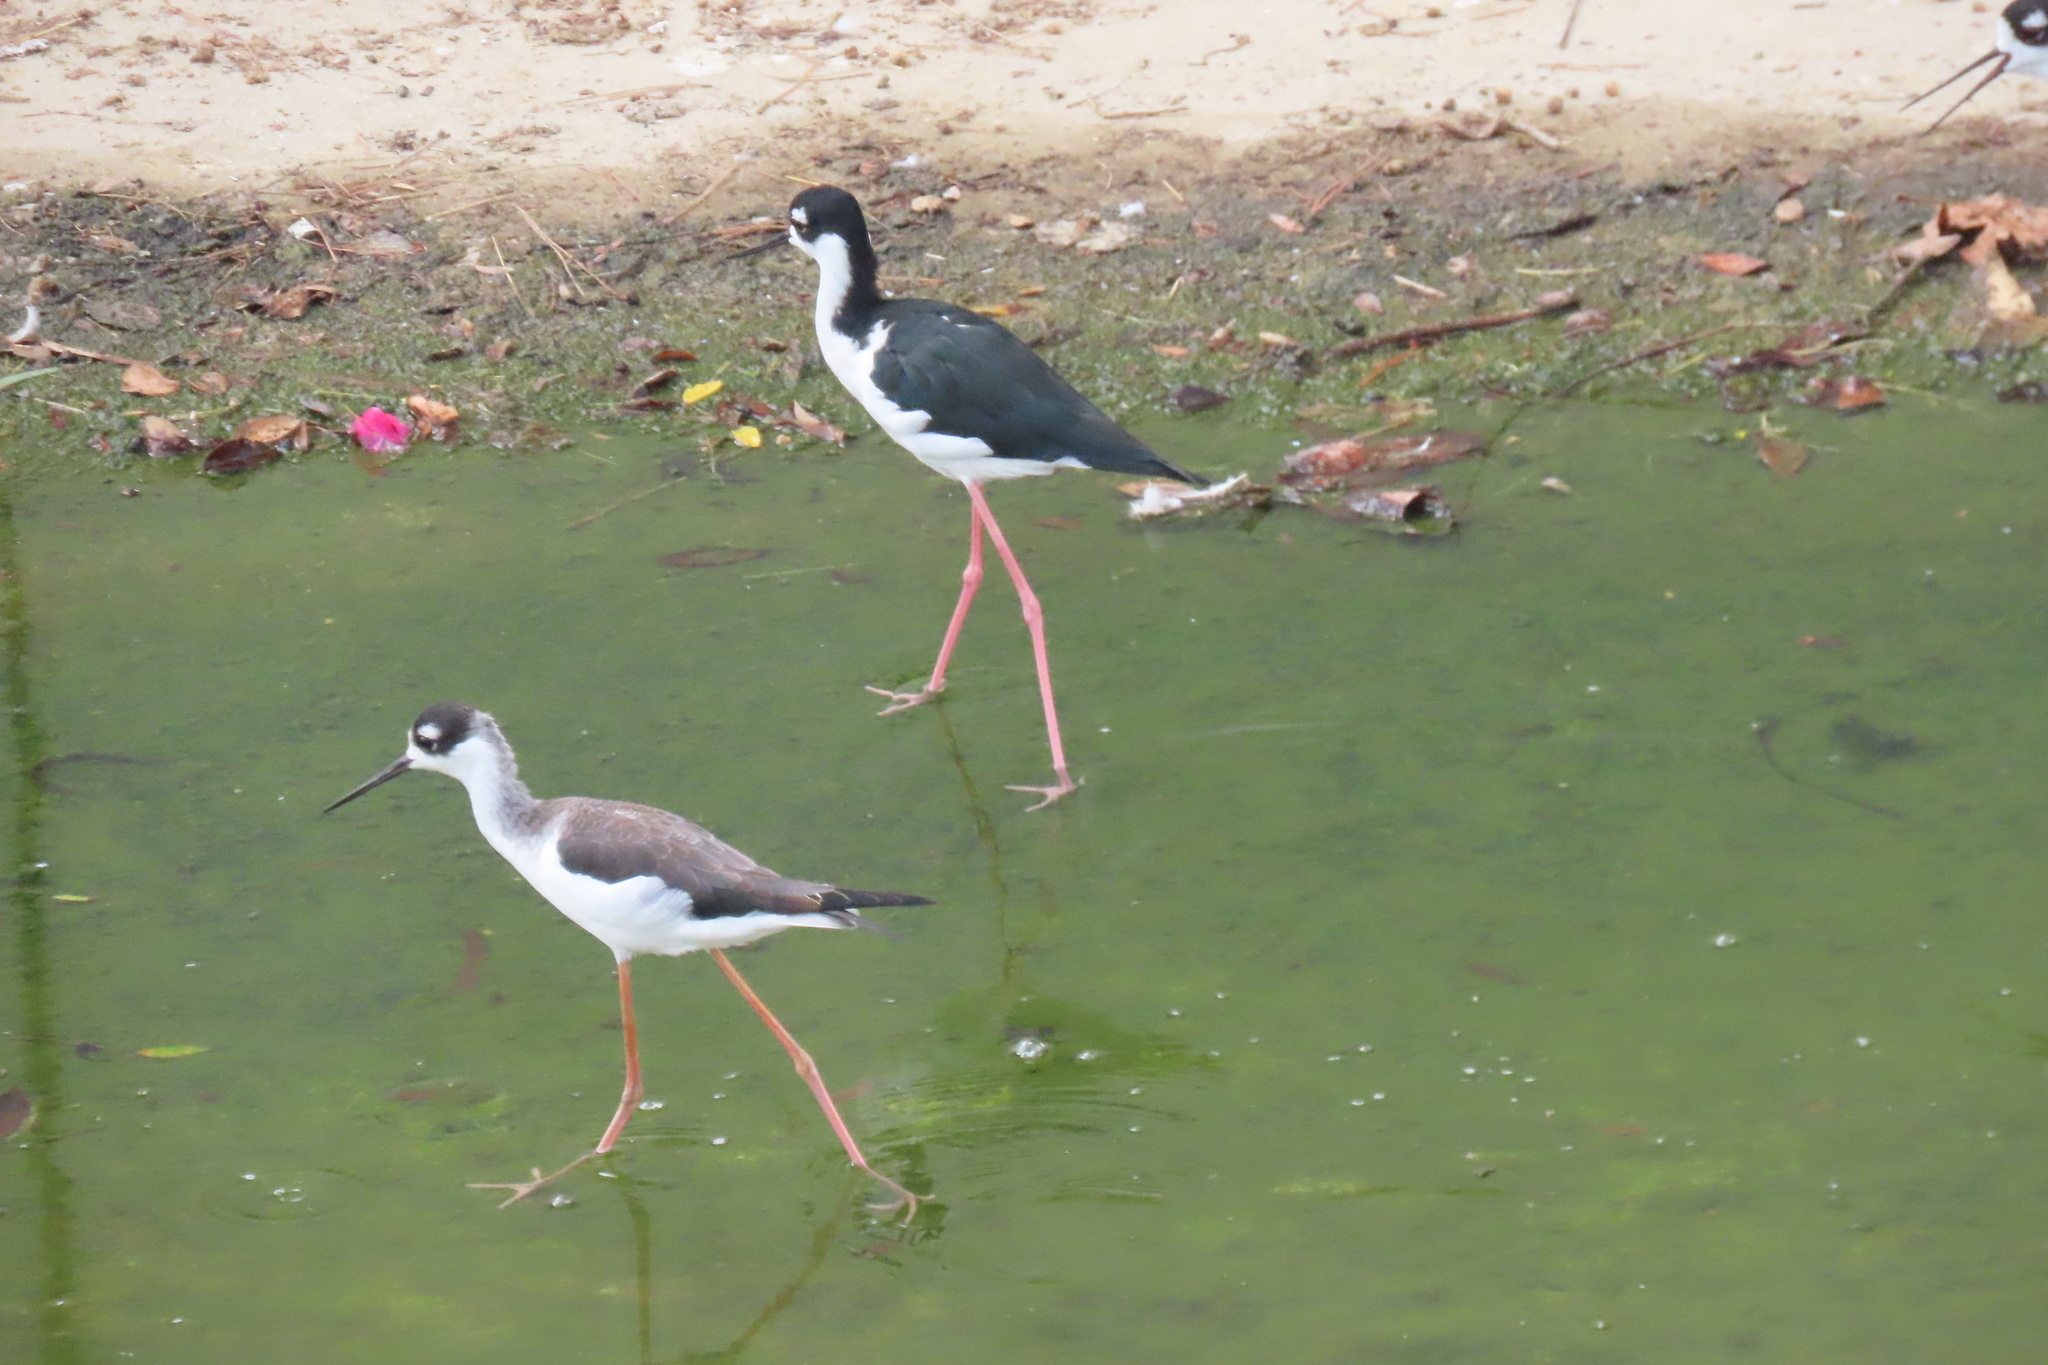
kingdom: Animalia
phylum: Chordata
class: Aves
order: Charadriiformes
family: Recurvirostridae
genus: Himantopus
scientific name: Himantopus mexicanus
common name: Black-necked stilt
